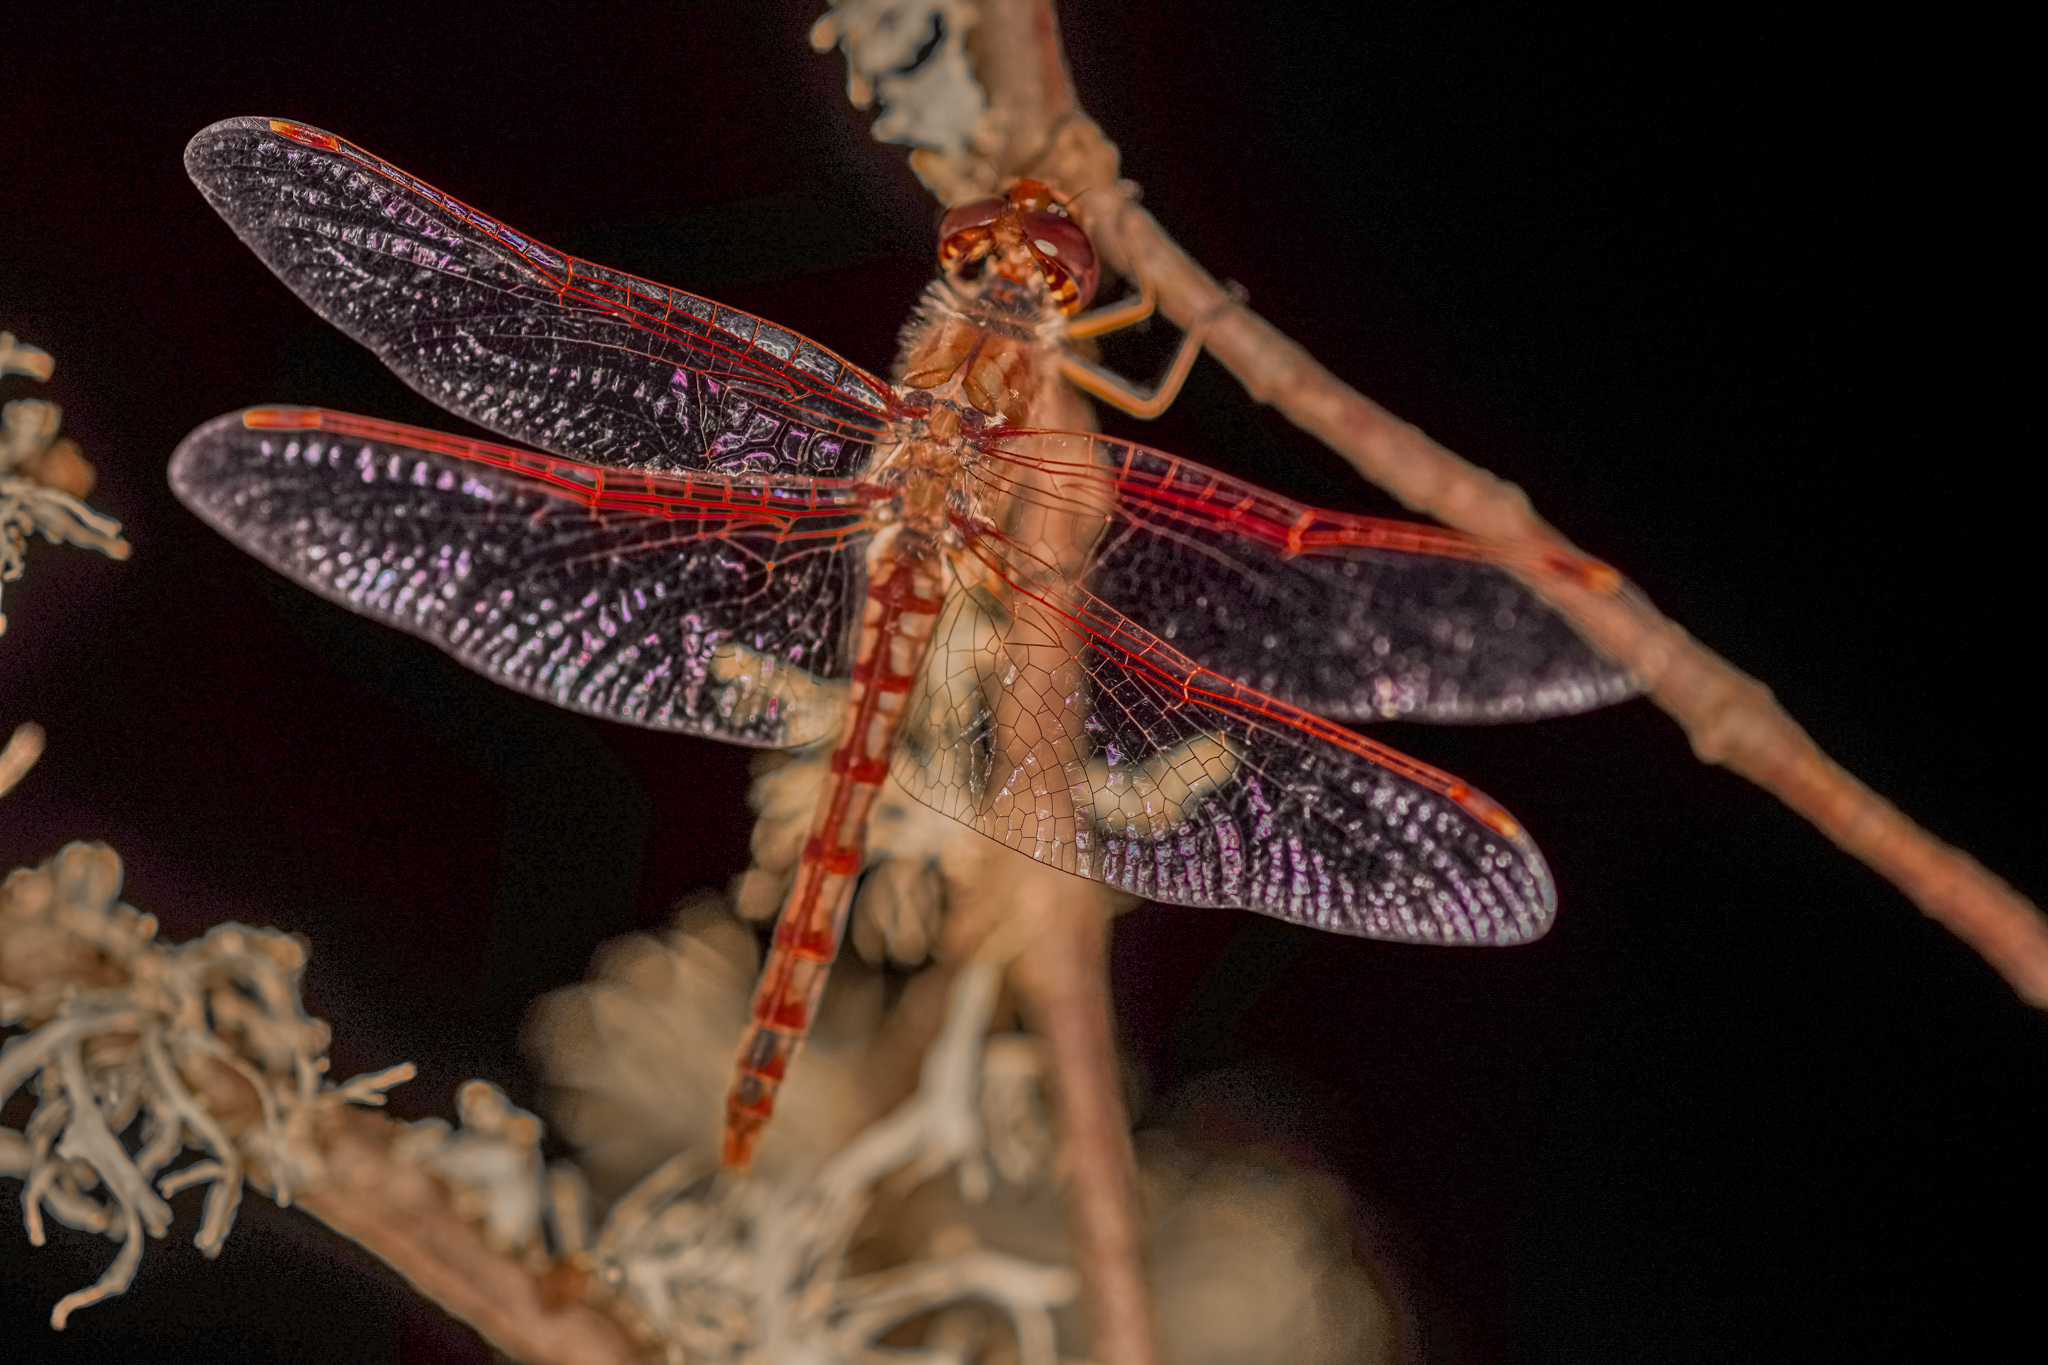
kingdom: Animalia
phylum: Arthropoda
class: Insecta
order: Odonata
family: Libellulidae
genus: Sympetrum
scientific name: Sympetrum corruptum
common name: Variegated meadowhawk
